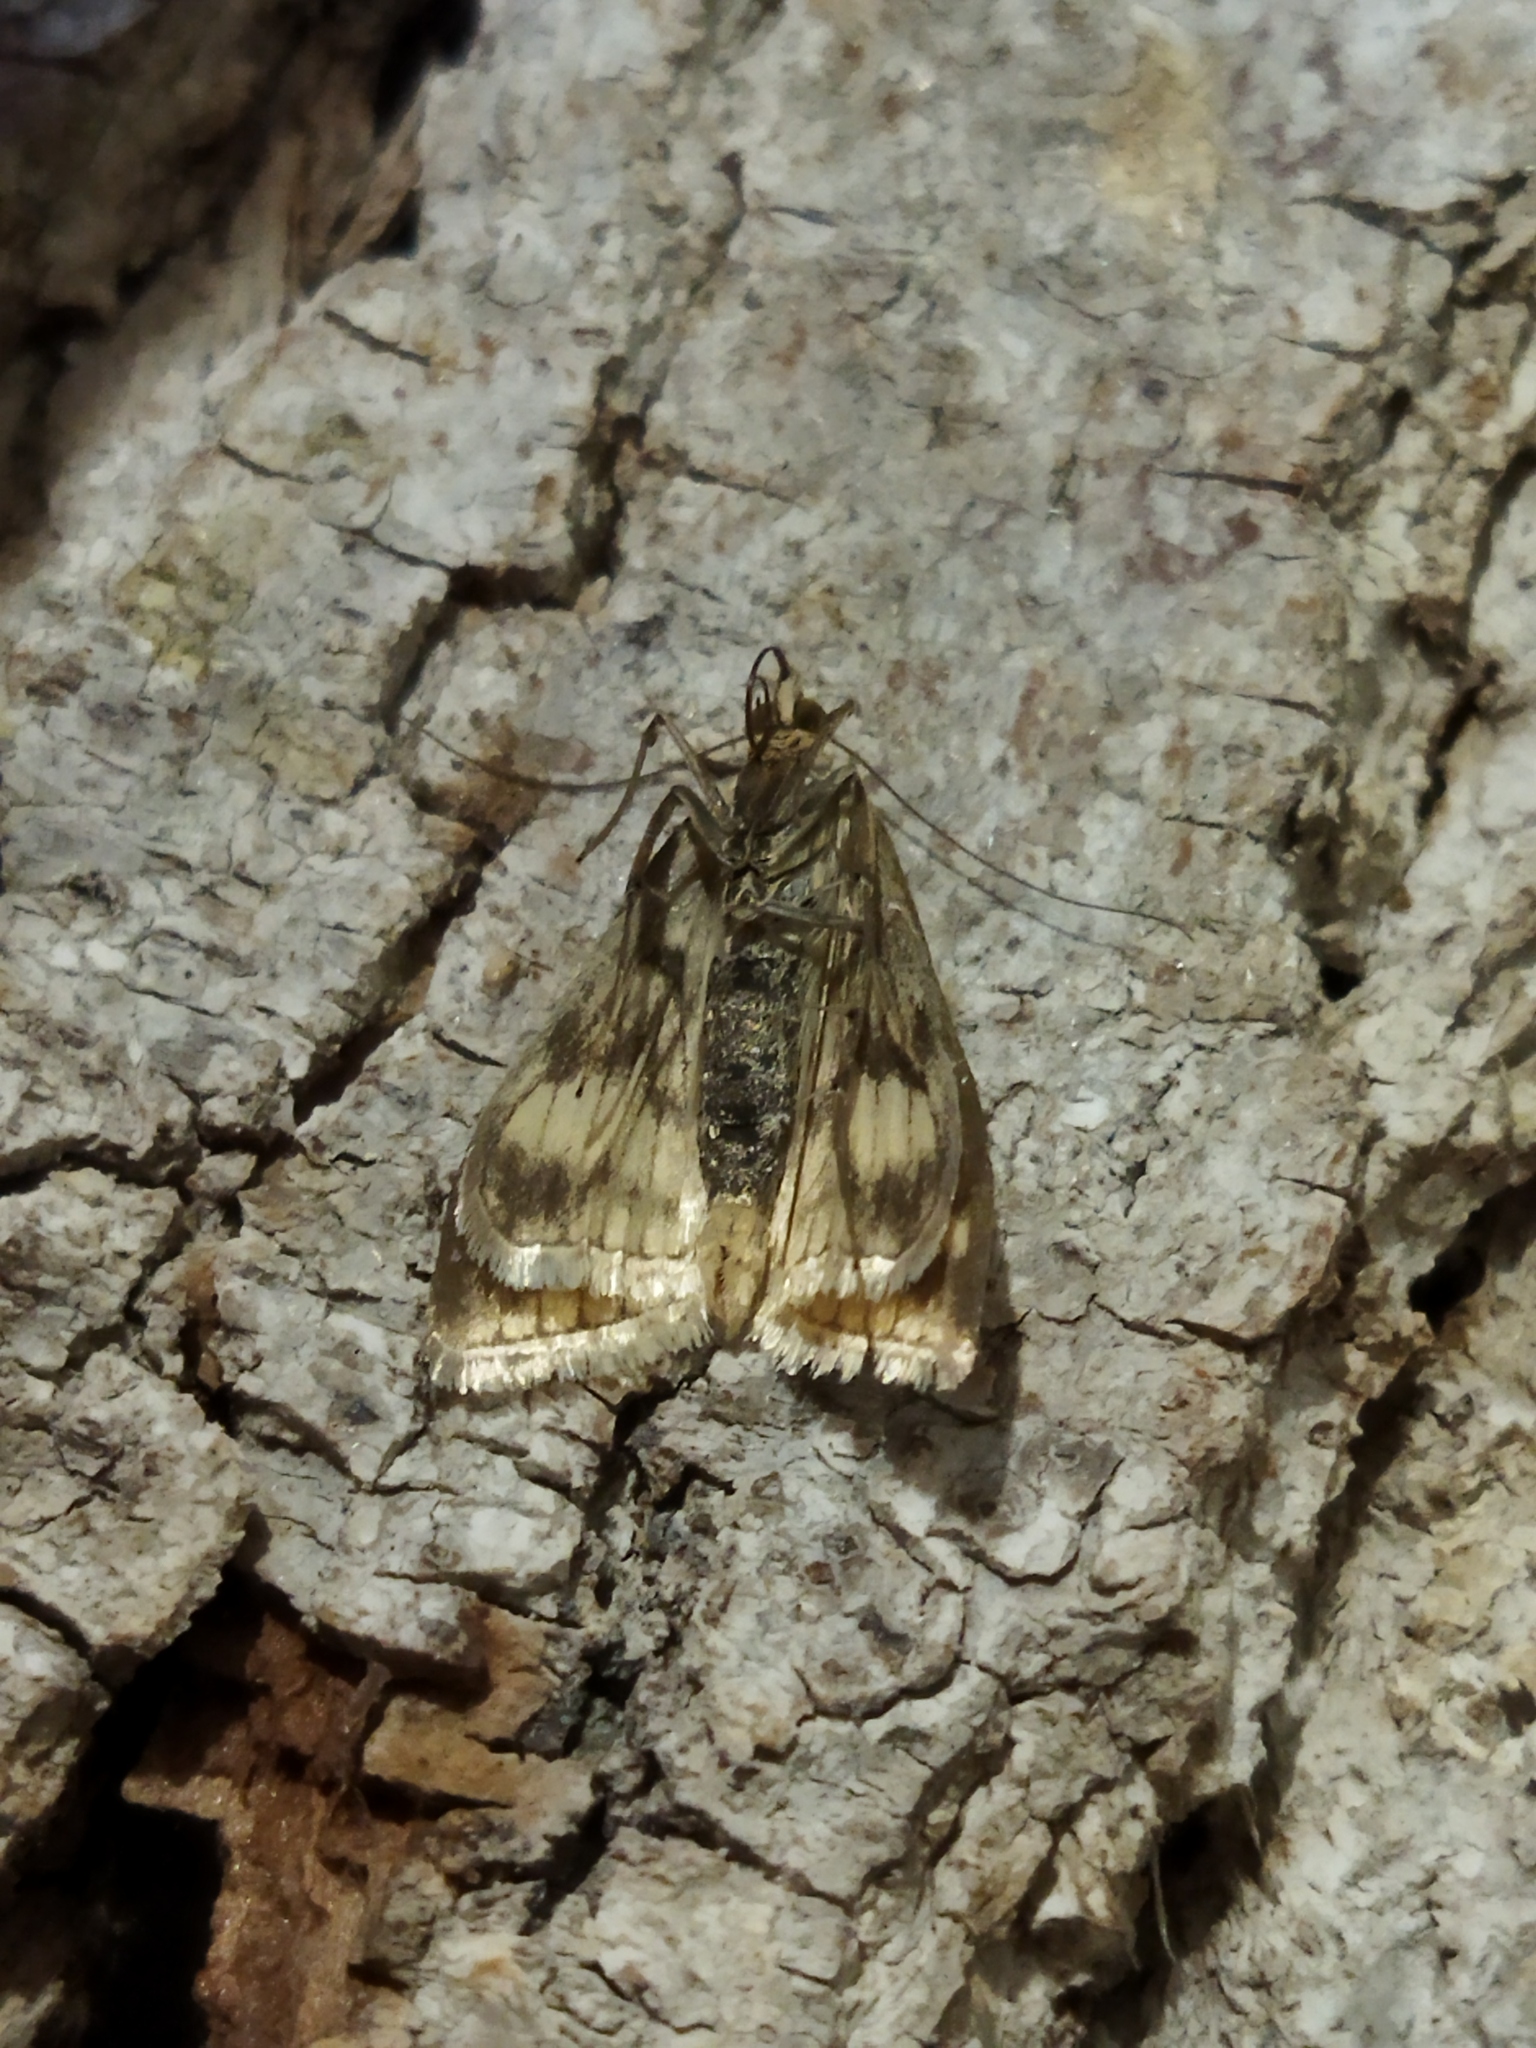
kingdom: Animalia
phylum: Arthropoda
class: Insecta
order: Lepidoptera
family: Crambidae
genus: Sitochroa
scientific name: Sitochroa verticalis
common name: Lesser pearl
